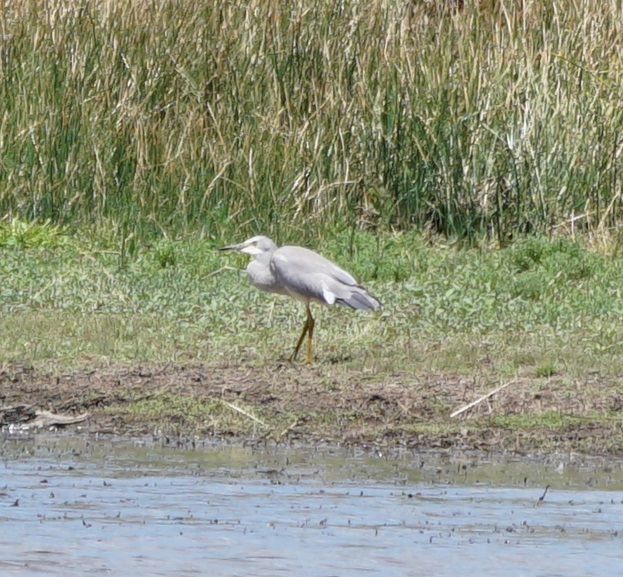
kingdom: Animalia
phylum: Chordata
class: Aves
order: Pelecaniformes
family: Ardeidae
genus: Egretta
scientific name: Egretta novaehollandiae
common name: White-faced heron
